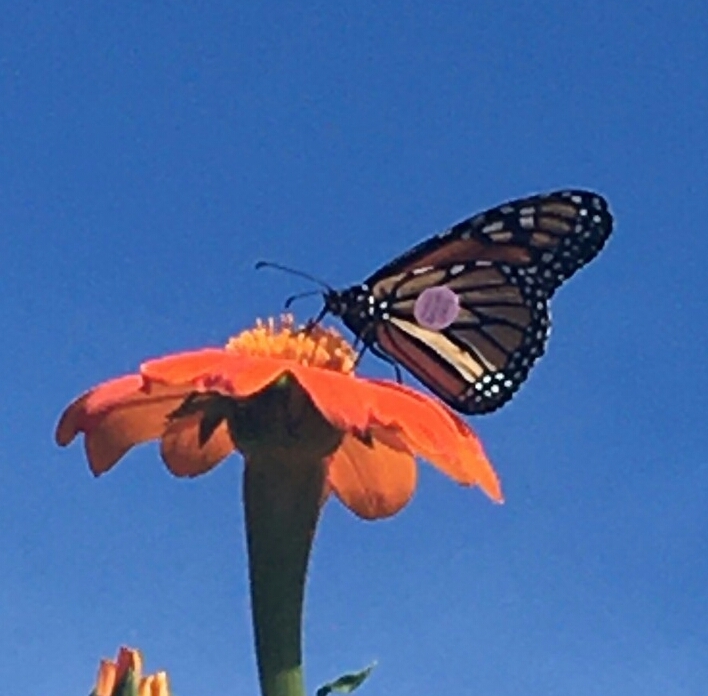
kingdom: Animalia
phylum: Arthropoda
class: Insecta
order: Lepidoptera
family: Nymphalidae
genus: Danaus
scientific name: Danaus plexippus
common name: Monarch
